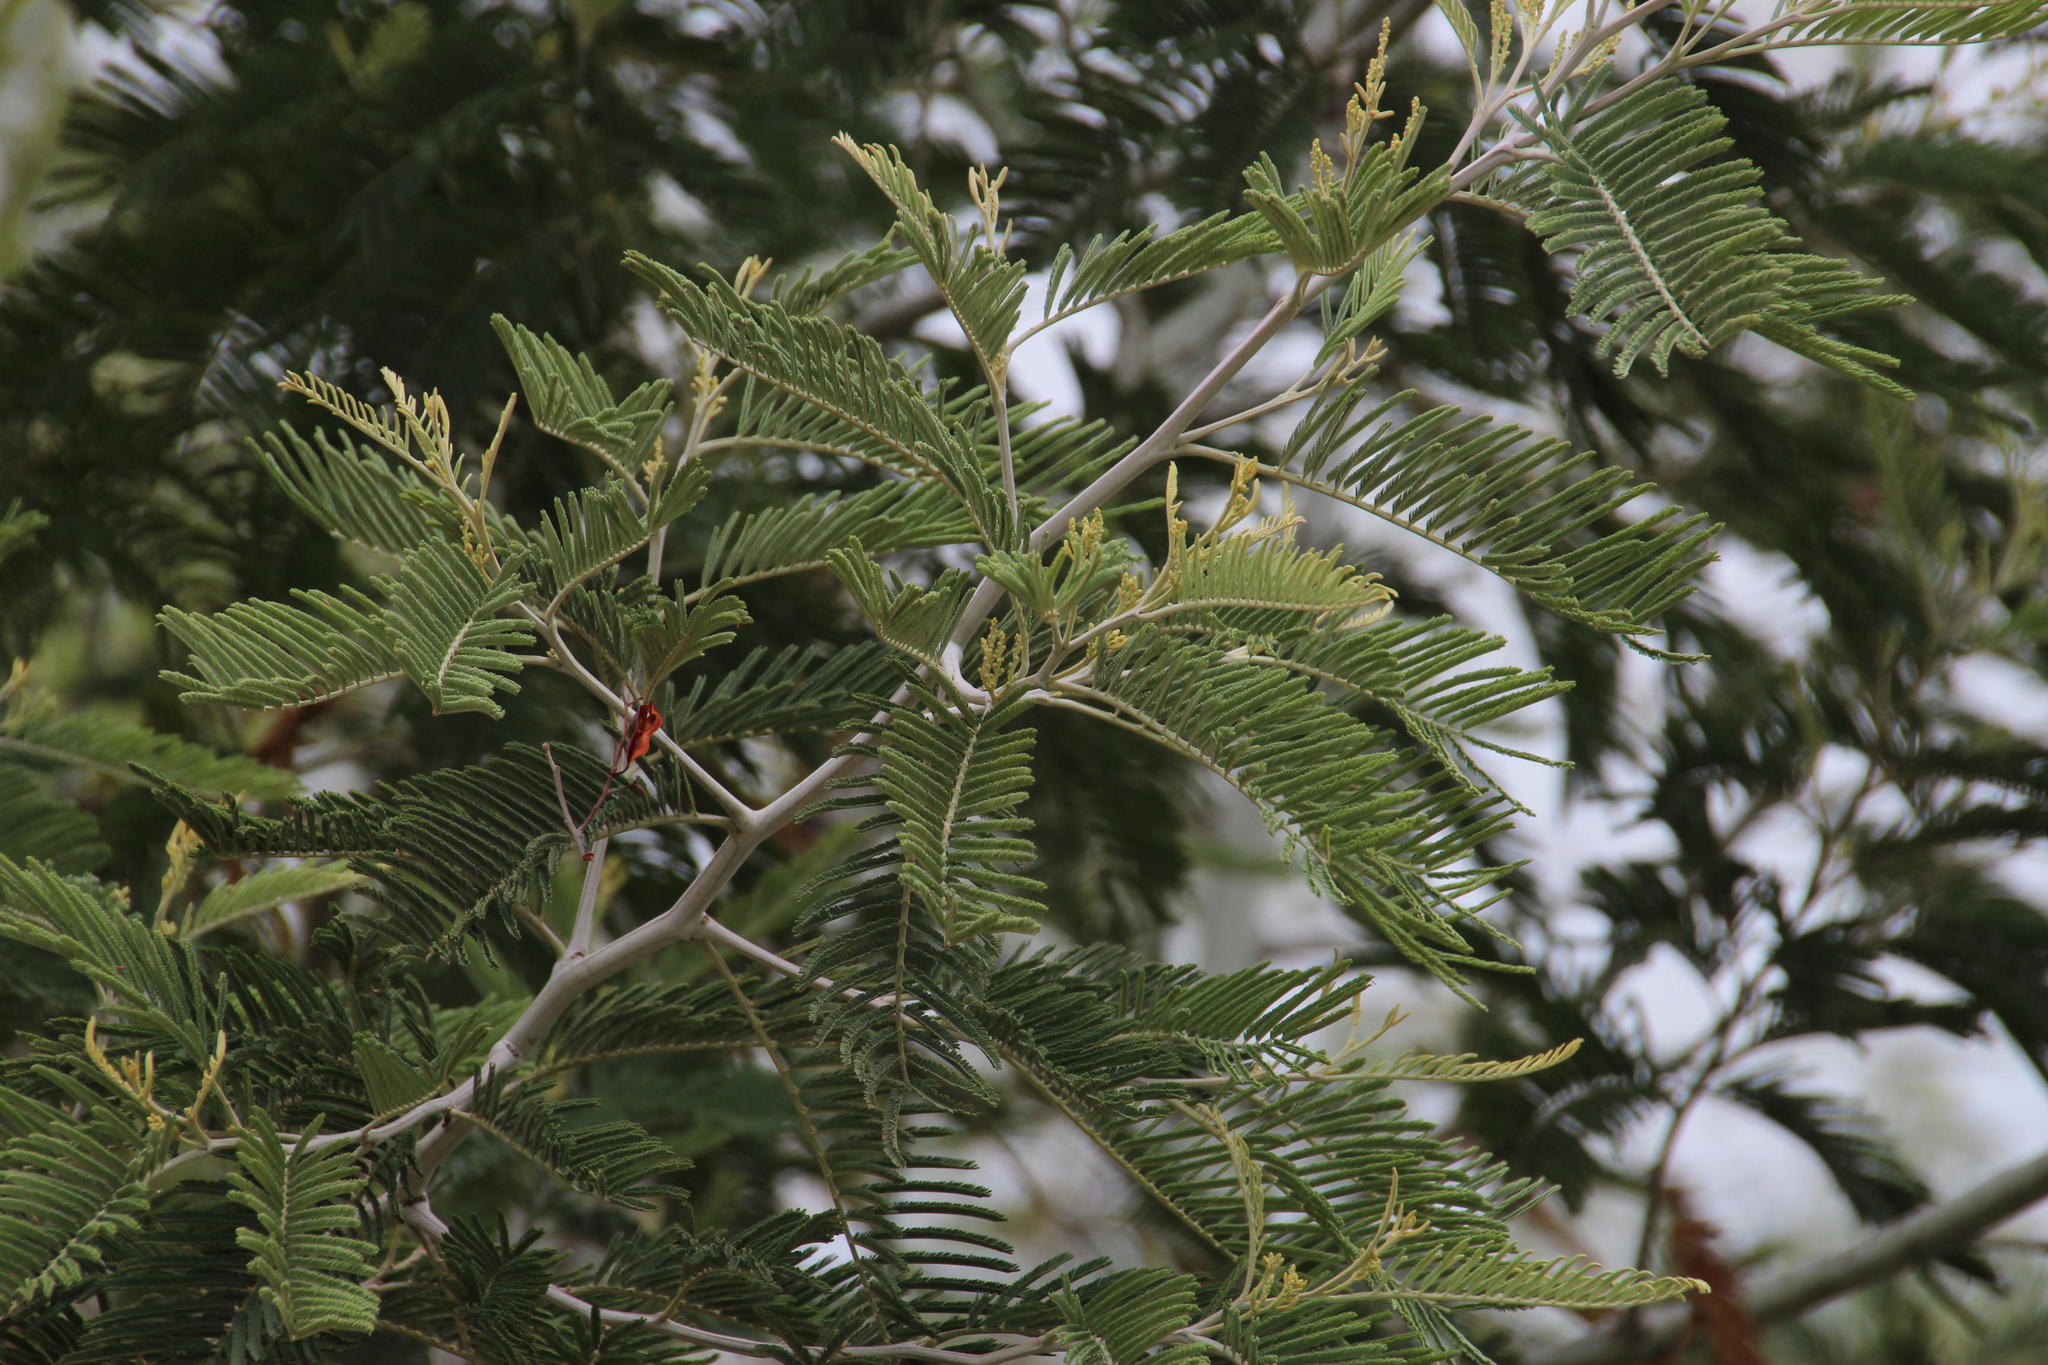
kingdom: Plantae
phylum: Tracheophyta
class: Magnoliopsida
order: Fabales
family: Fabaceae
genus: Acacia
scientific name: Acacia dealbata
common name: Silver wattle
